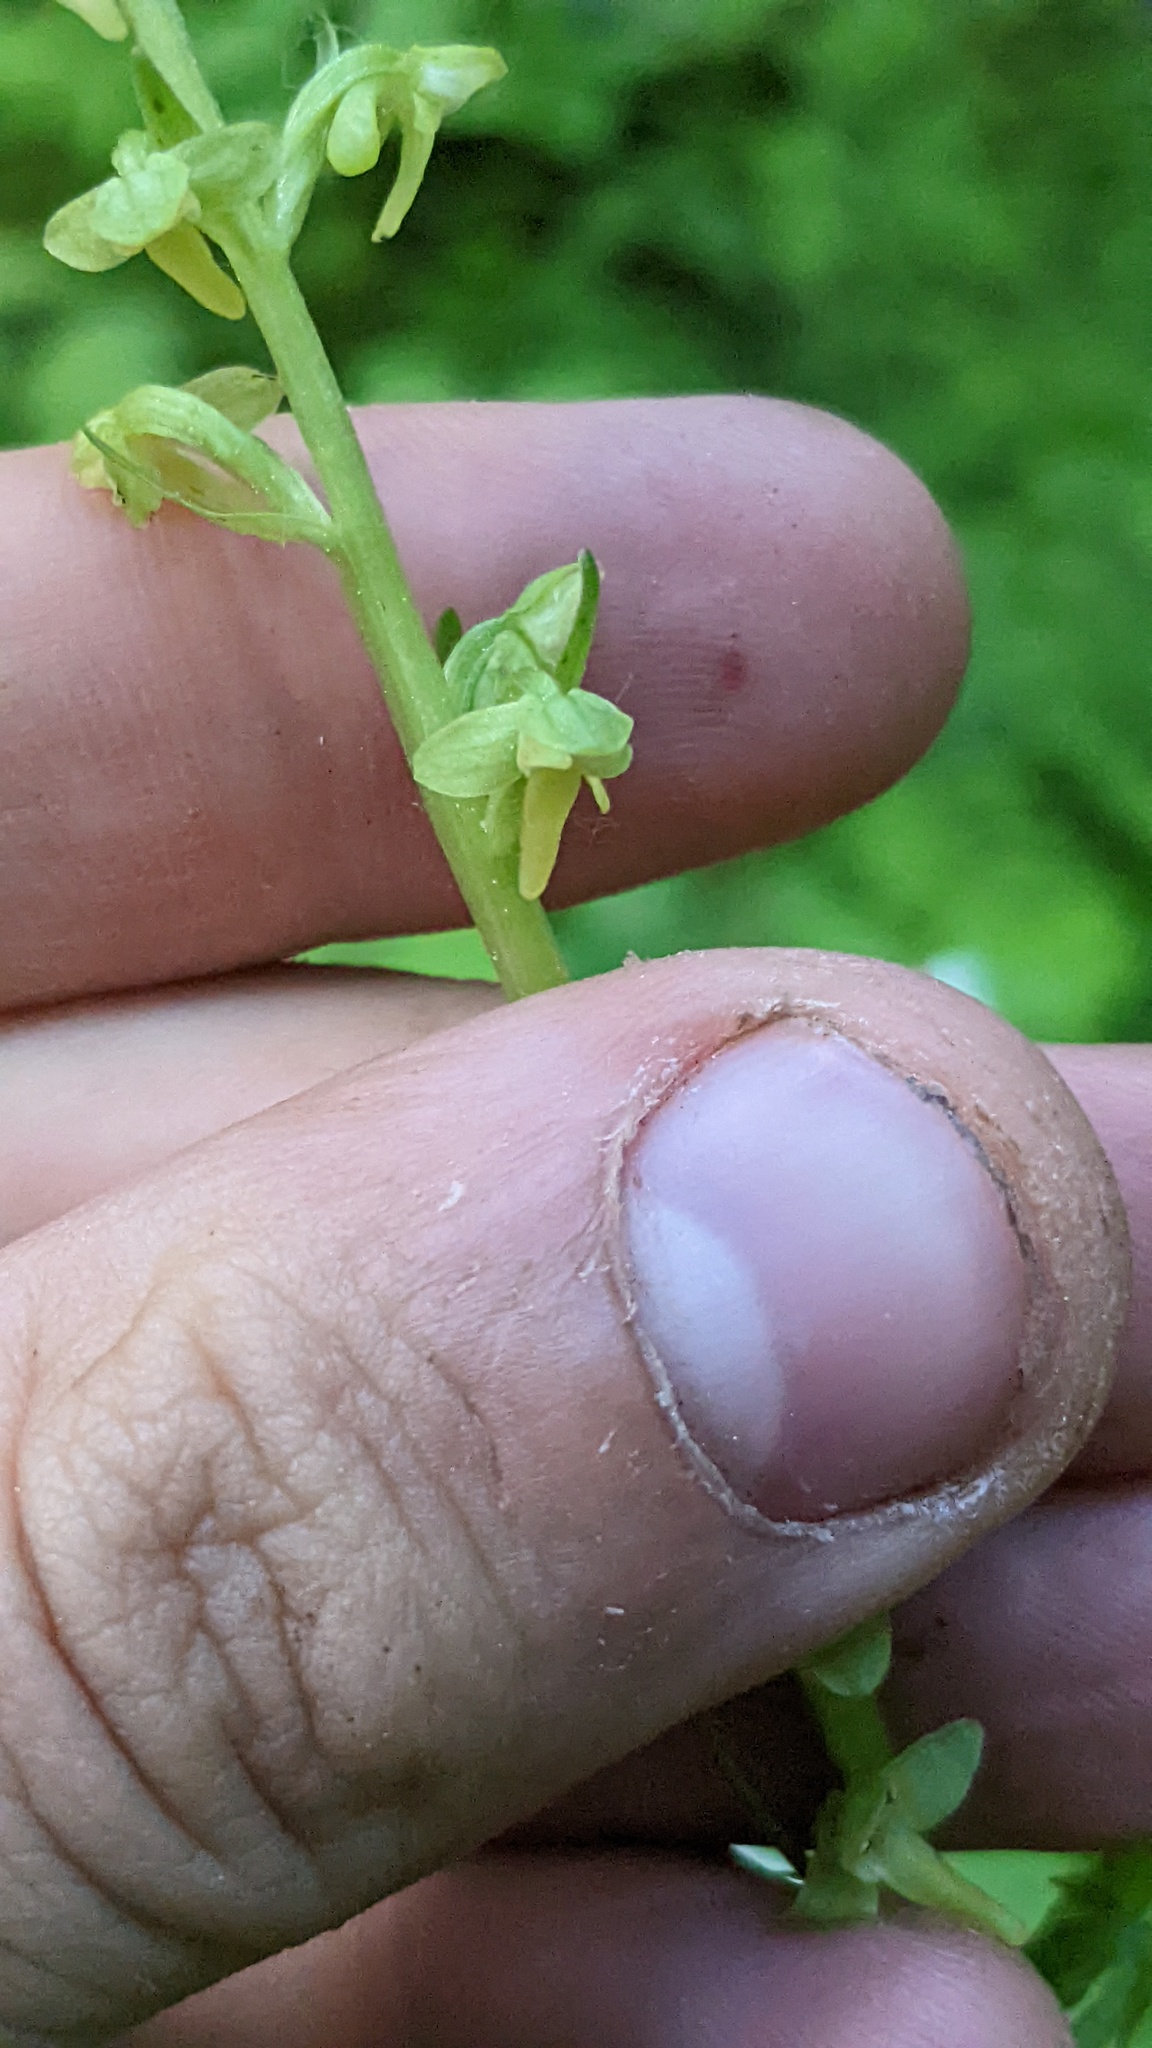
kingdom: Plantae
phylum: Tracheophyta
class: Liliopsida
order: Asparagales
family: Orchidaceae
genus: Platanthera
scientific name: Platanthera stricta
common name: Slender bog orchid
